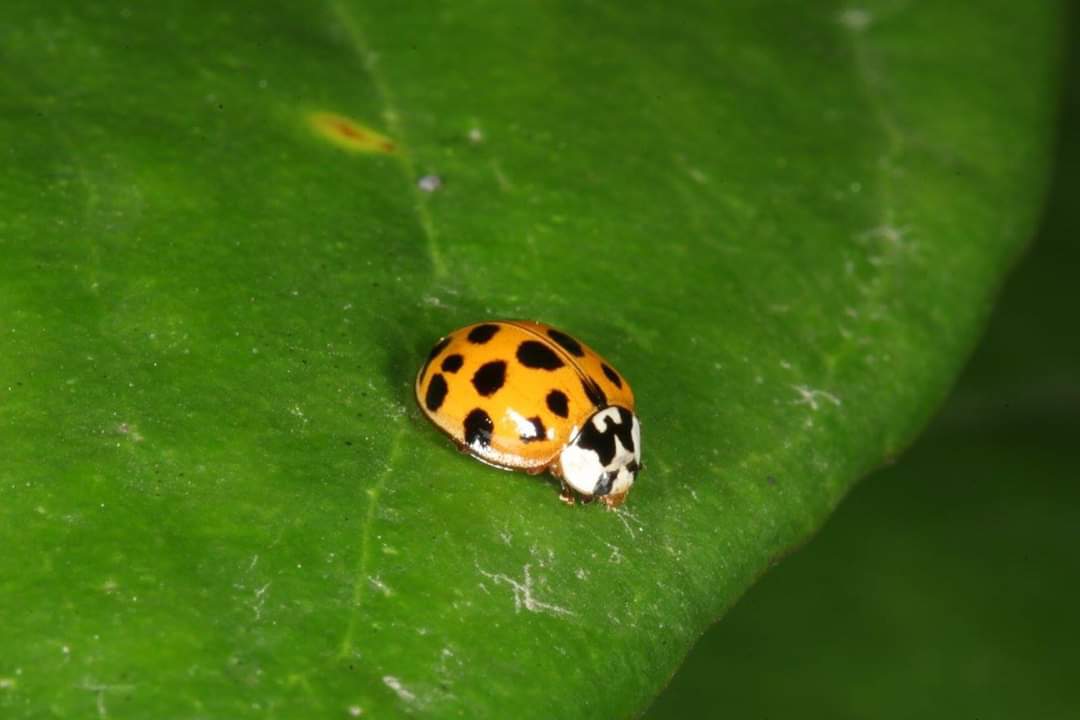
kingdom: Animalia
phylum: Arthropoda
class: Insecta
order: Coleoptera
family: Coccinellidae
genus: Harmonia
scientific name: Harmonia axyridis
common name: Harlequin ladybird
